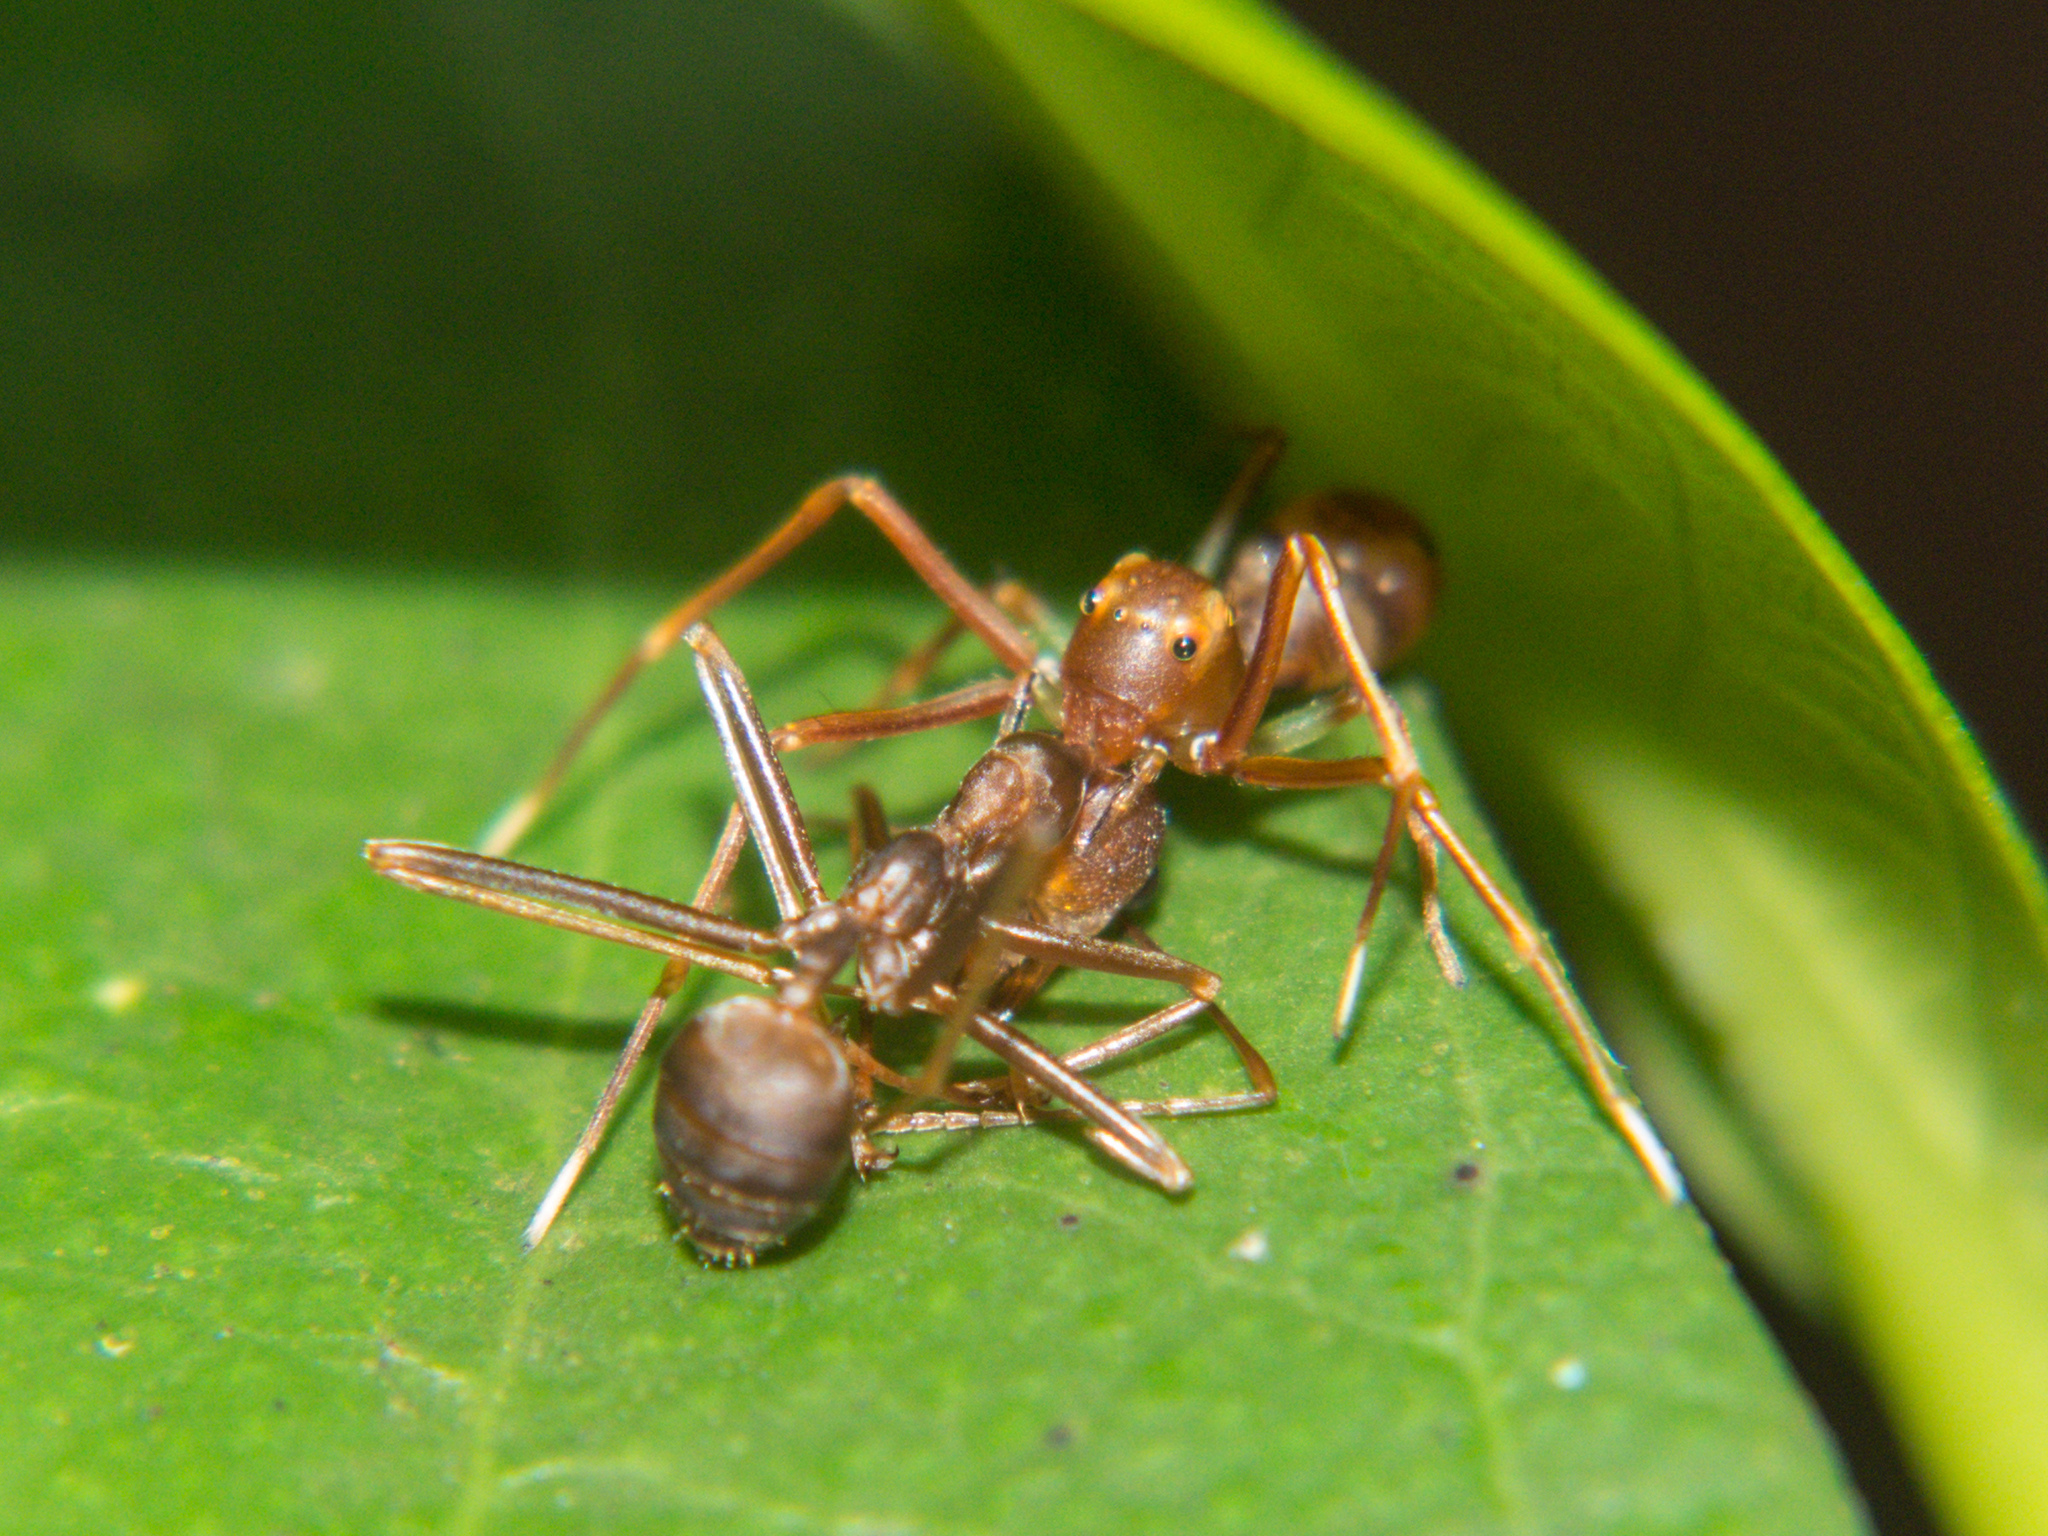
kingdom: Animalia
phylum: Arthropoda
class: Insecta
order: Hymenoptera
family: Formicidae
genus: Oecophylla
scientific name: Oecophylla smaragdina
